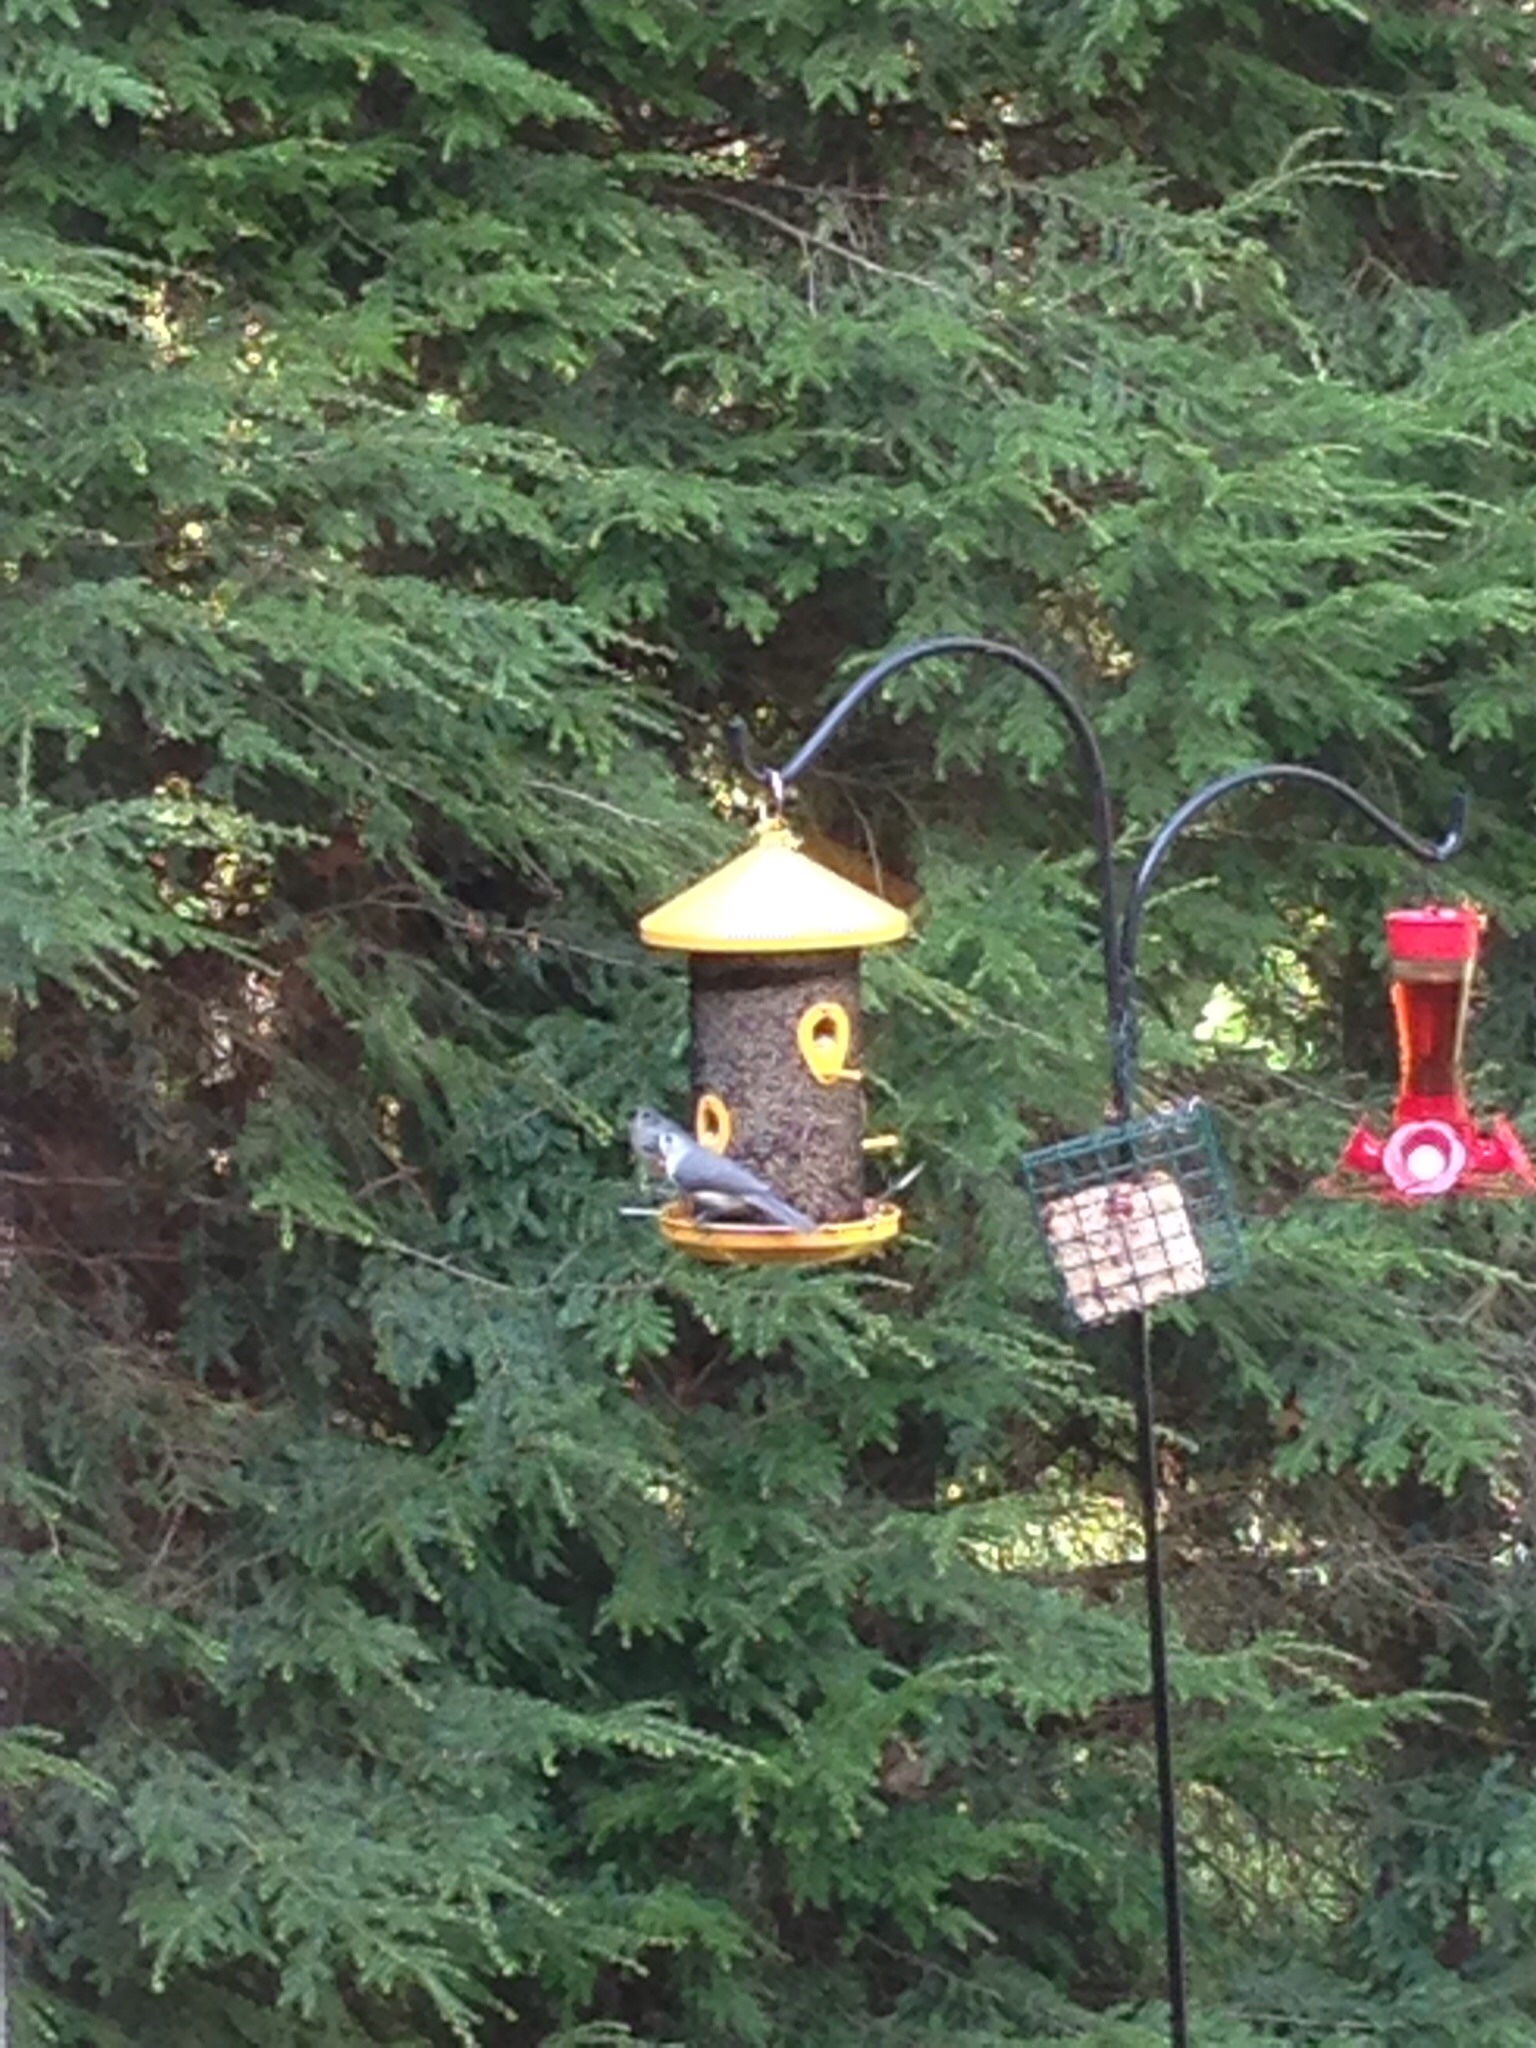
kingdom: Animalia
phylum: Chordata
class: Aves
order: Passeriformes
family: Paridae
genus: Baeolophus
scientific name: Baeolophus bicolor
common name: Tufted titmouse
